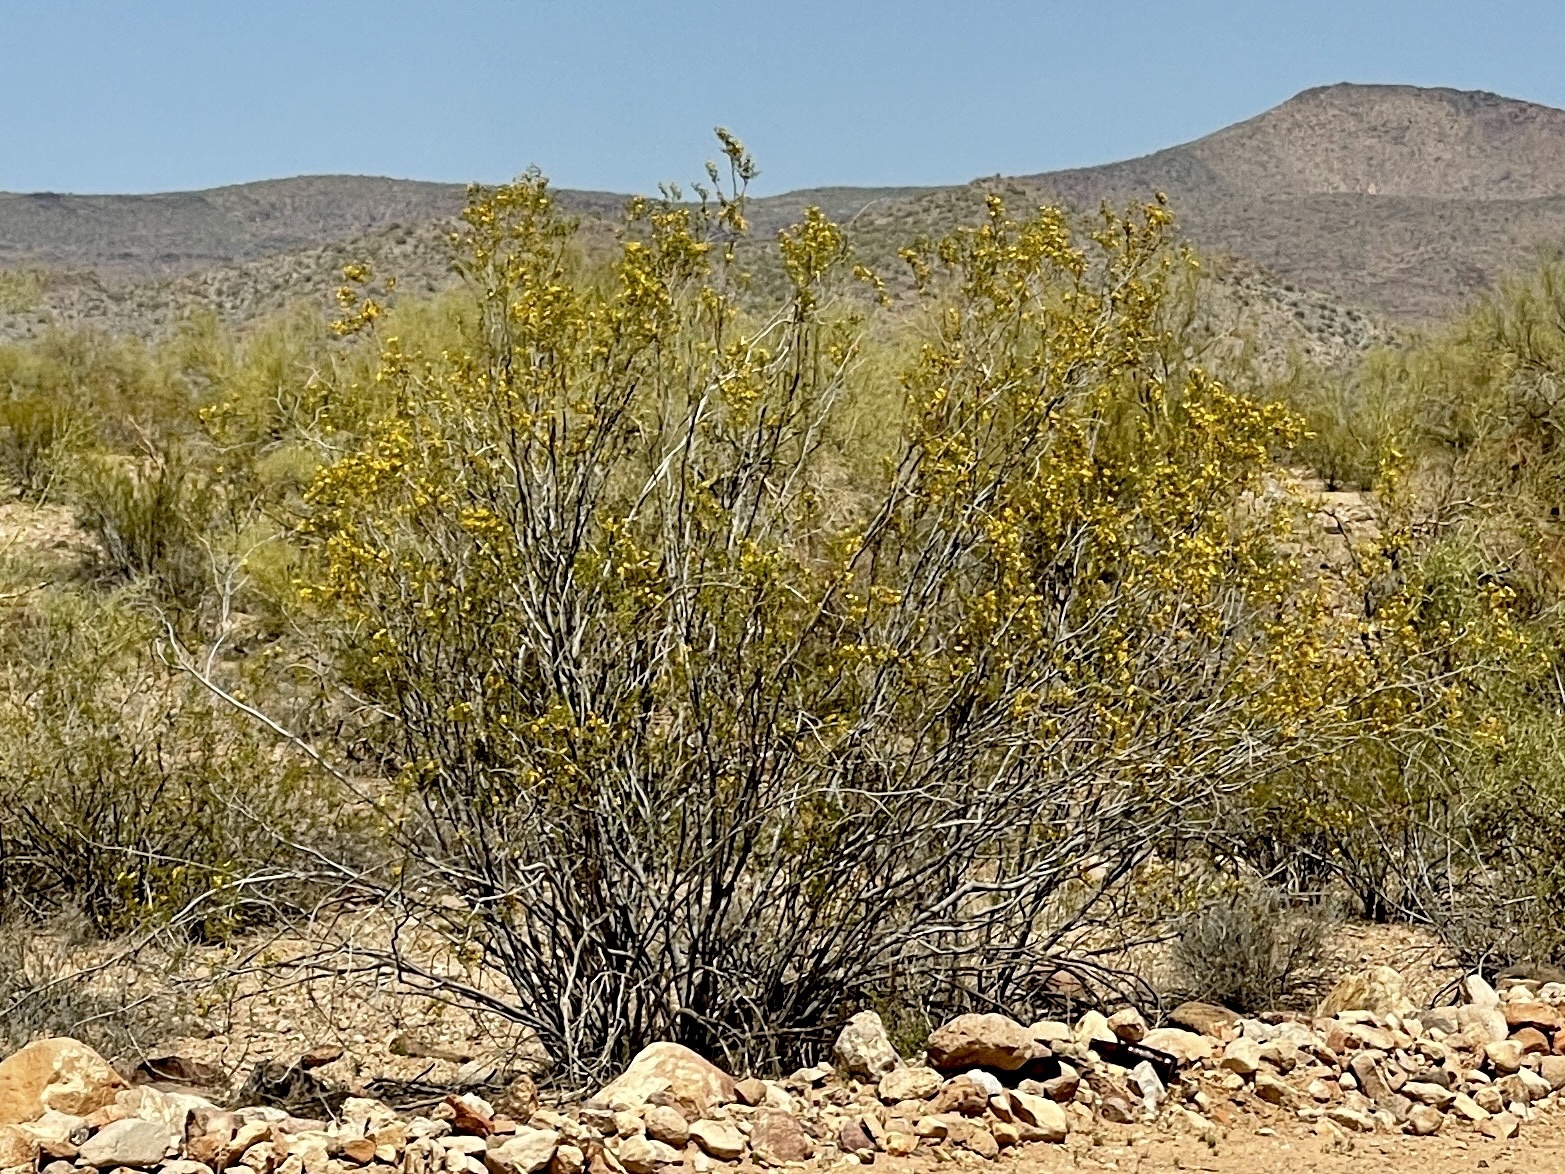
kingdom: Plantae
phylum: Tracheophyta
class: Magnoliopsida
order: Zygophyllales
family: Zygophyllaceae
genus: Larrea
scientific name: Larrea tridentata
